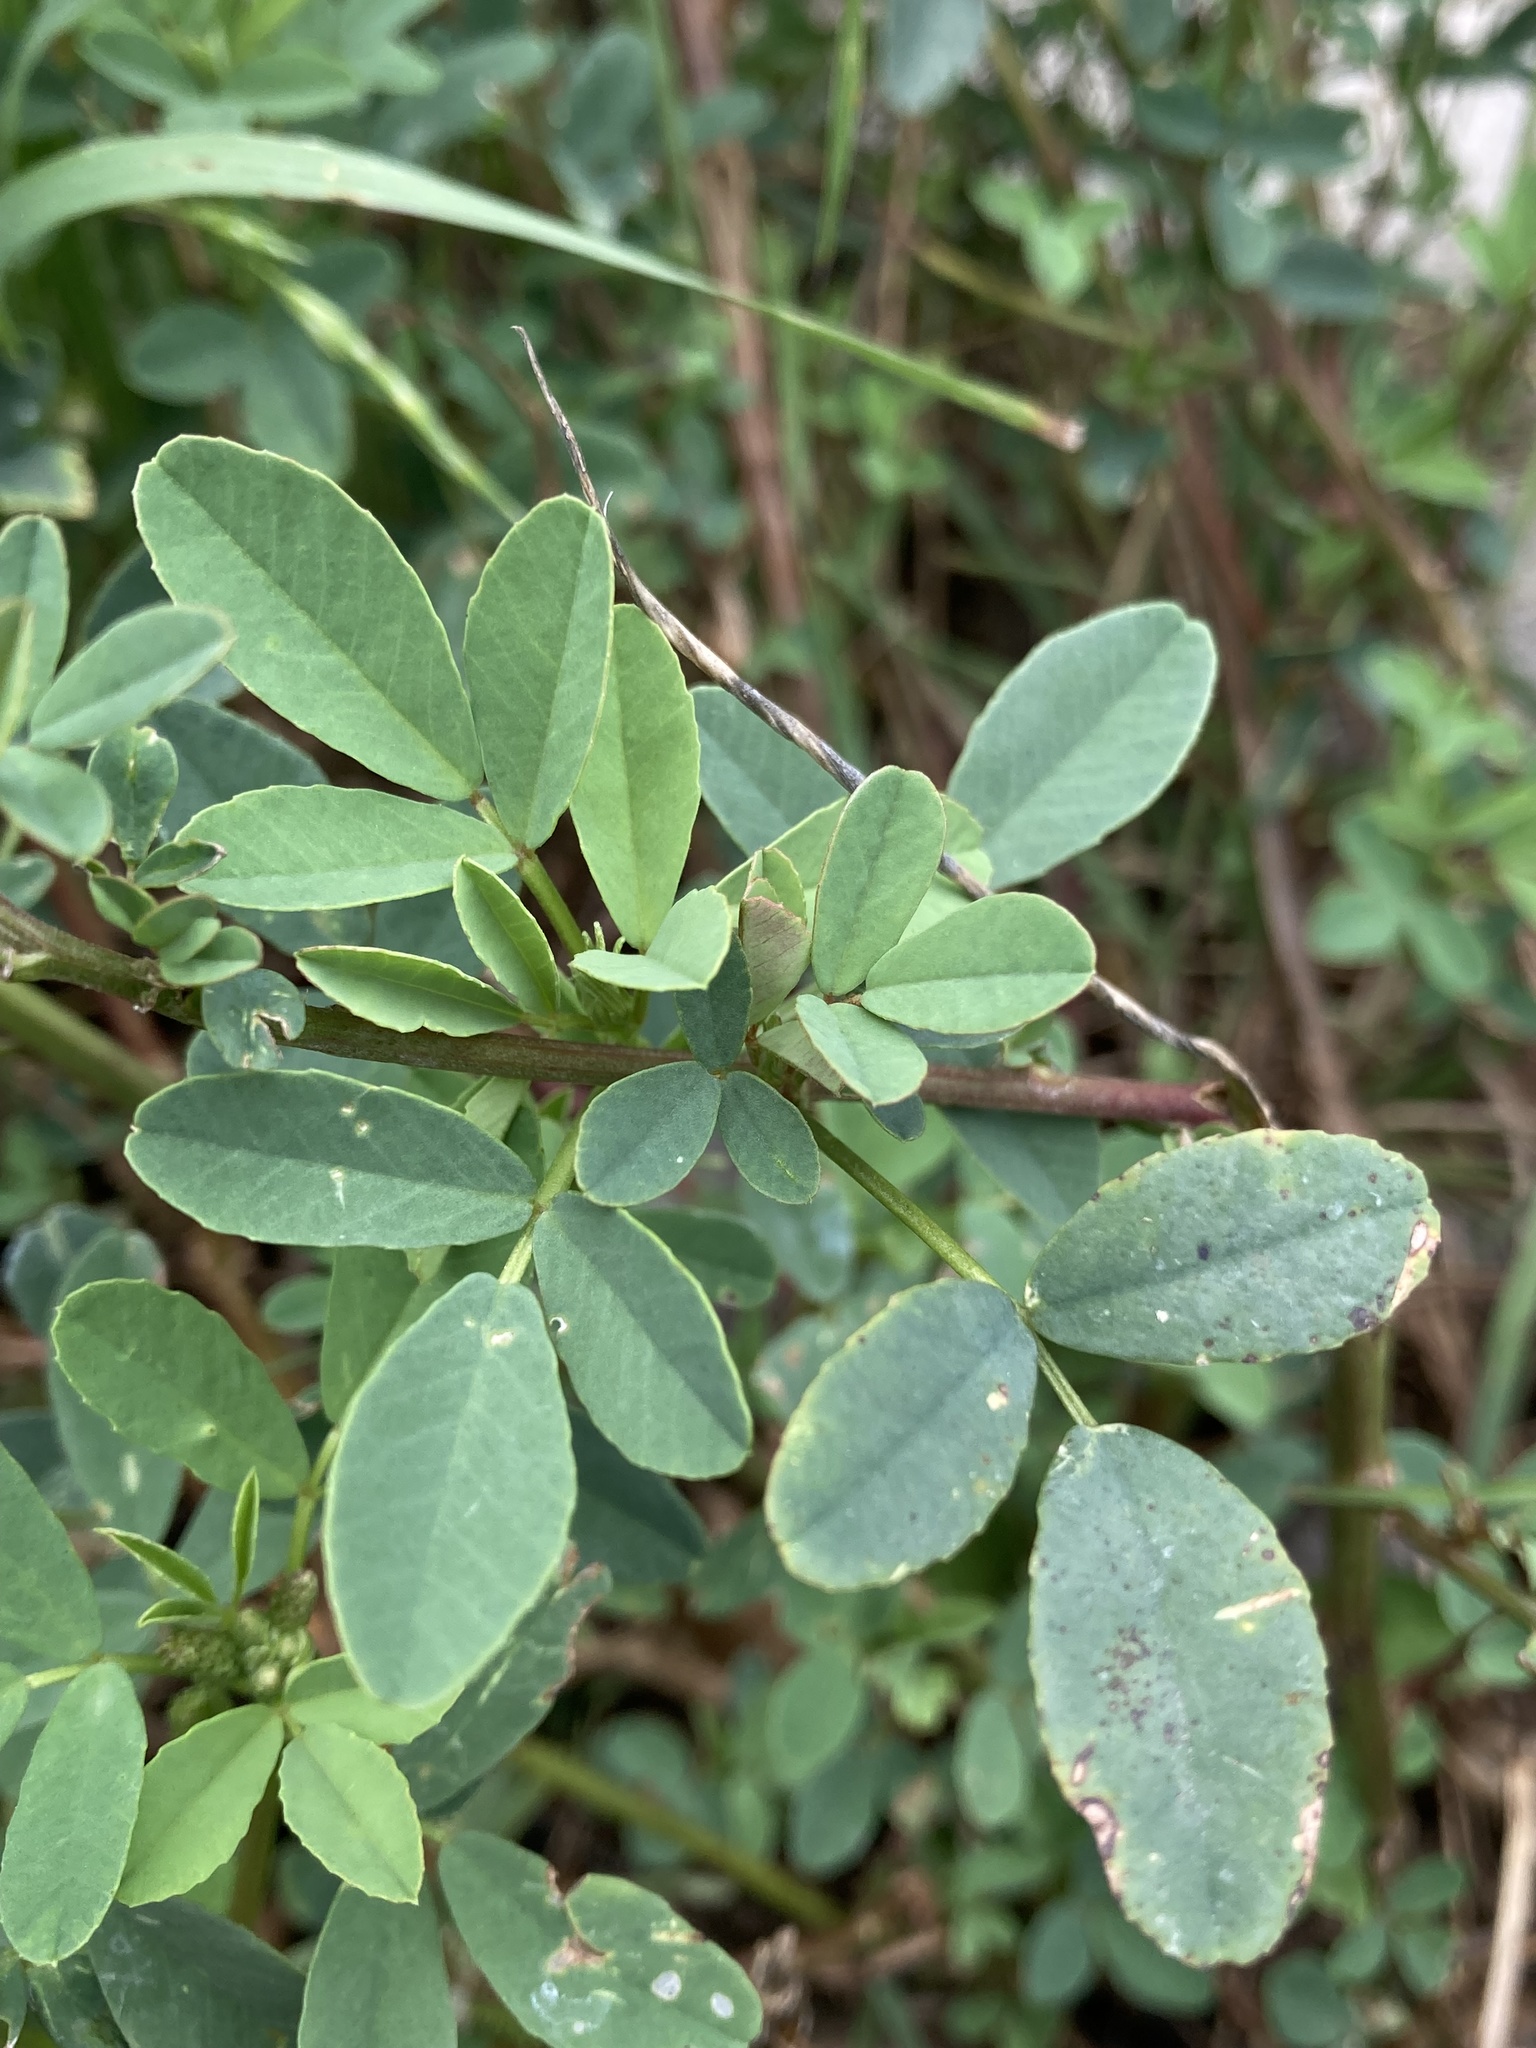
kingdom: Plantae
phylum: Tracheophyta
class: Magnoliopsida
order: Fabales
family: Fabaceae
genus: Melilotus
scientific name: Melilotus albus
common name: White melilot
